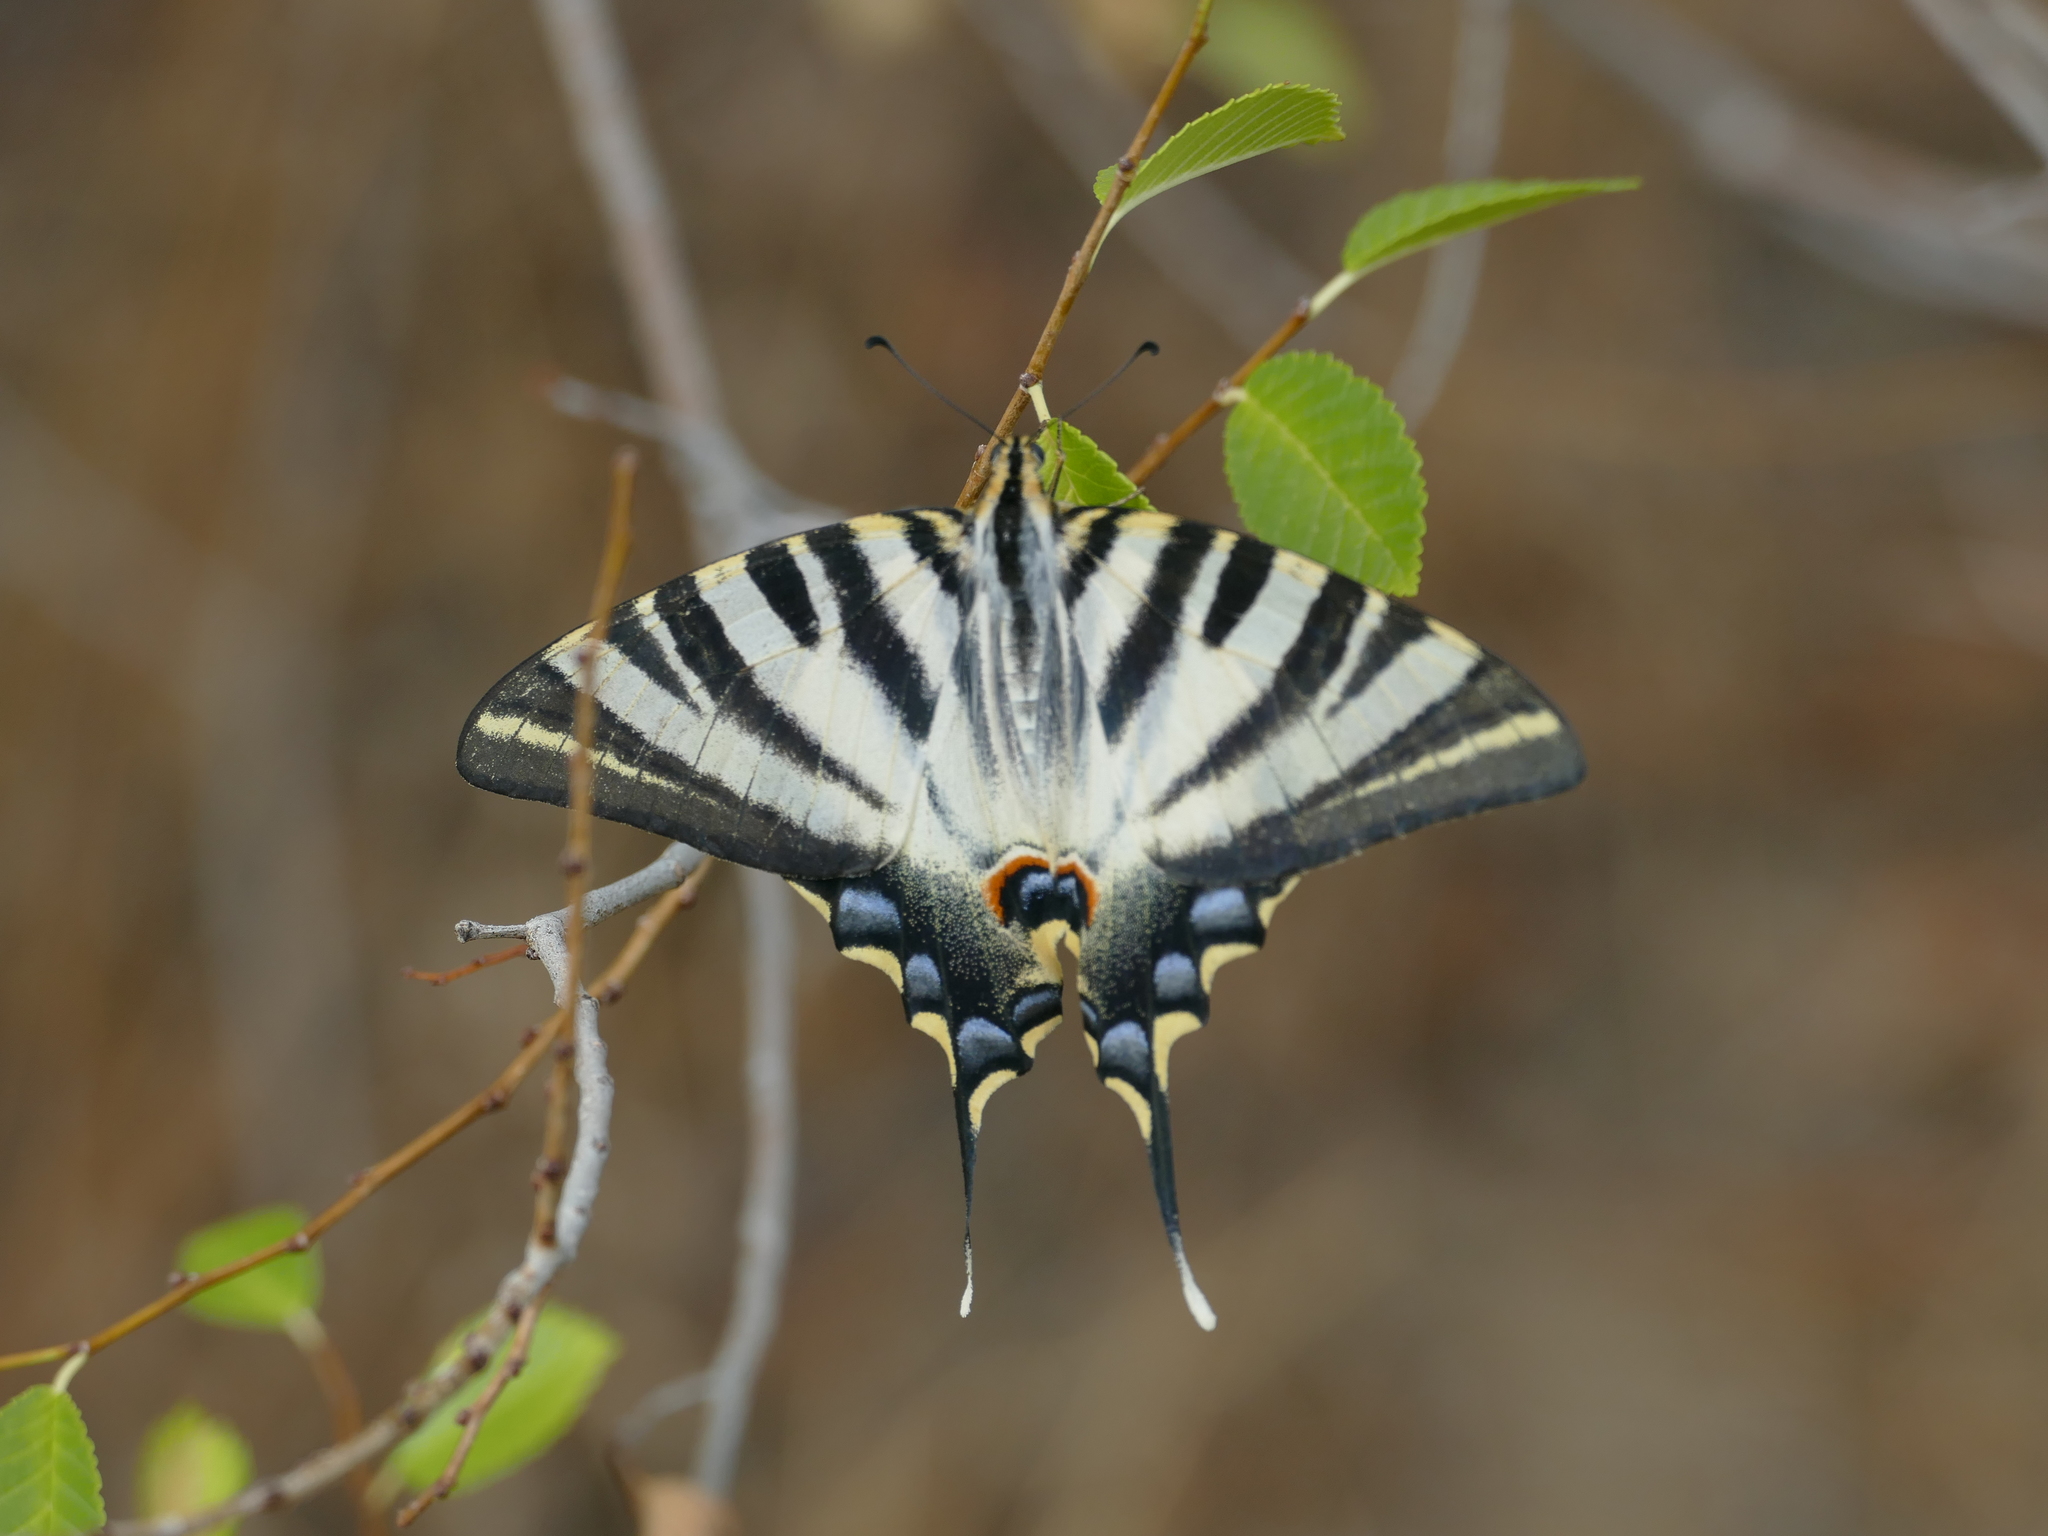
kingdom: Animalia
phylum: Arthropoda
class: Insecta
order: Lepidoptera
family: Papilionidae
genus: Iphiclides
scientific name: Iphiclides feisthamelii
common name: Iberian scarce swallowtail
